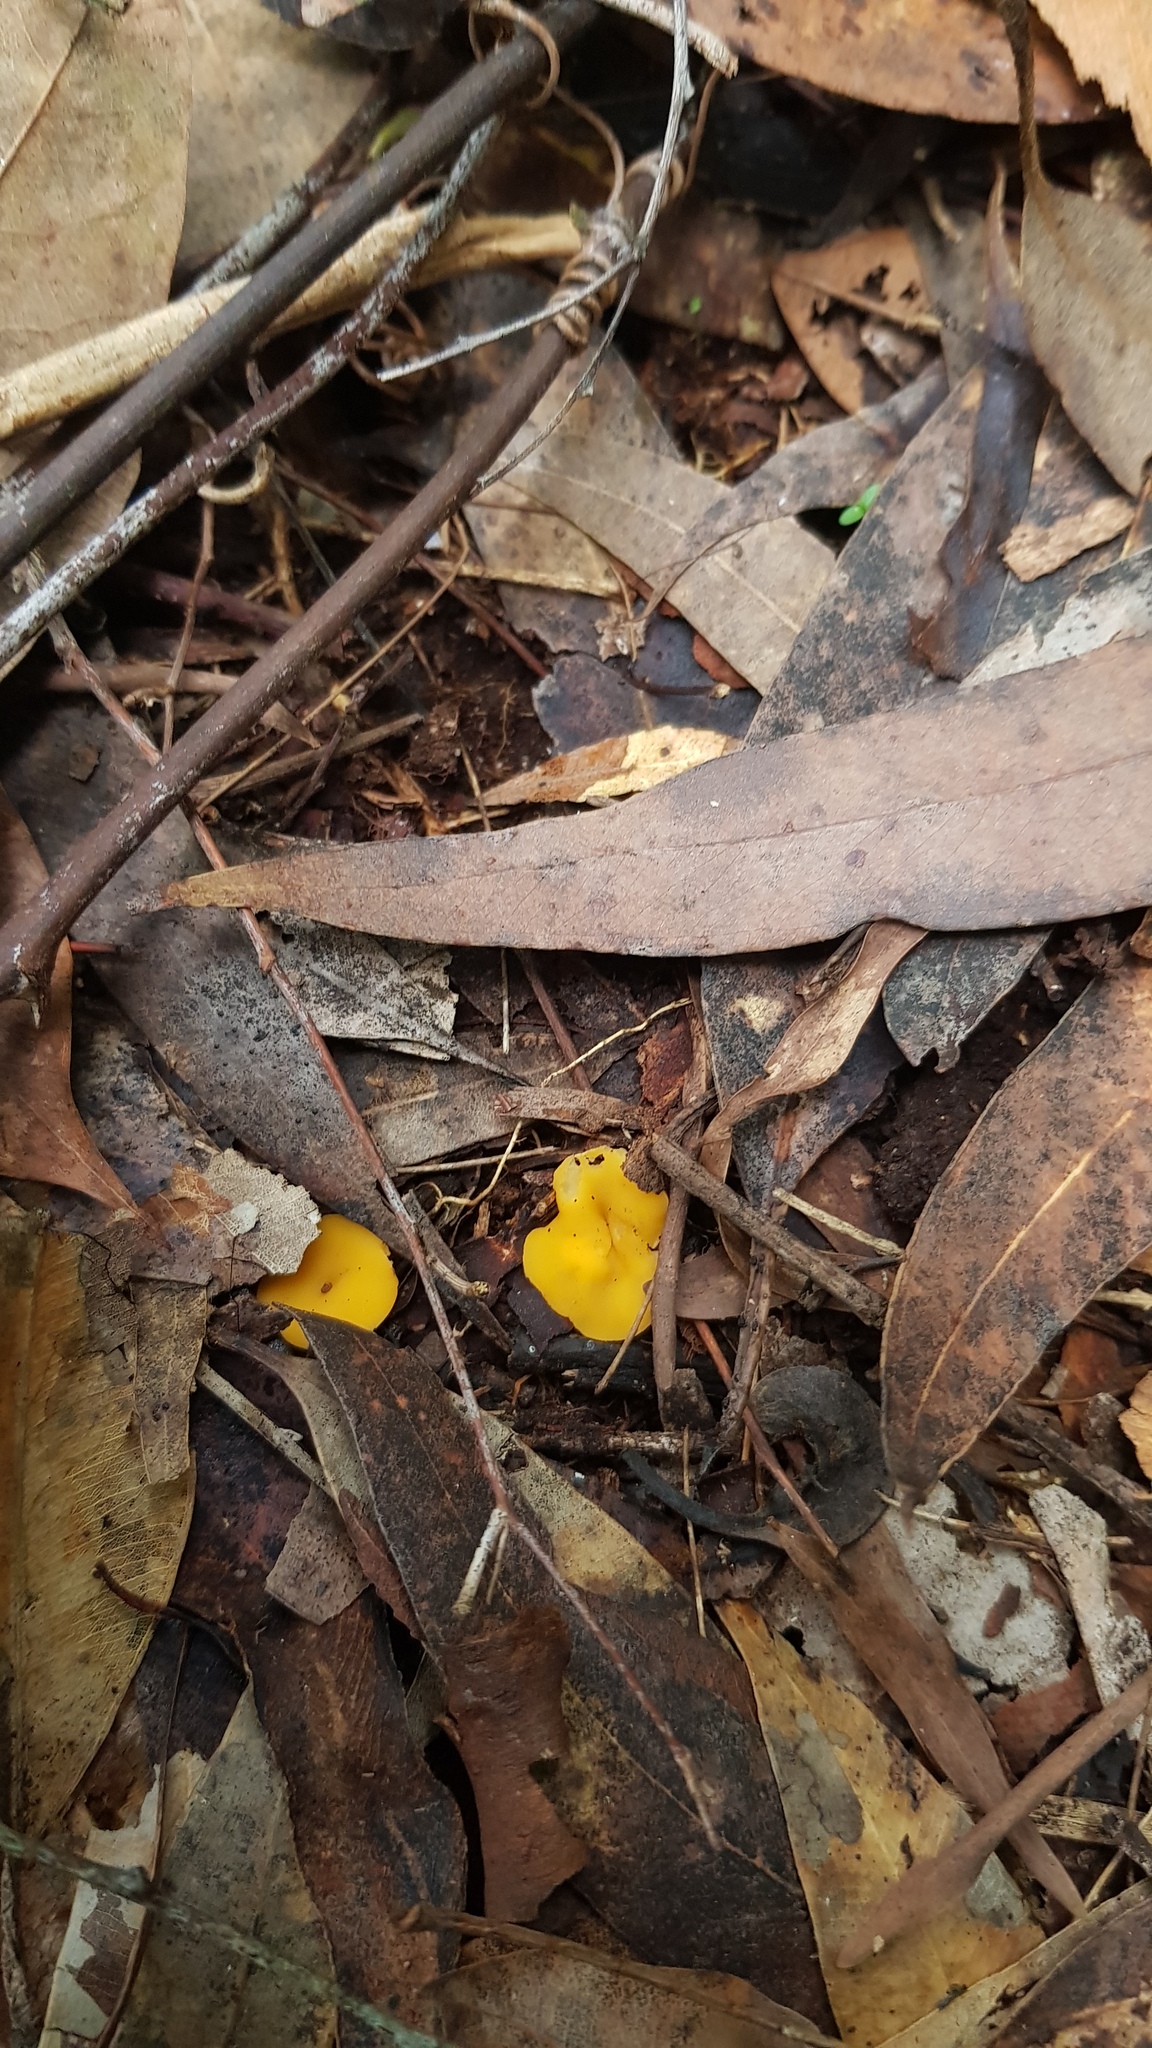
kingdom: Fungi
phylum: Ascomycota
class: Leotiomycetes
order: Helotiales
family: Helotiaceae
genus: Phaeohelotium
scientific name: Phaeohelotium baileyanum
